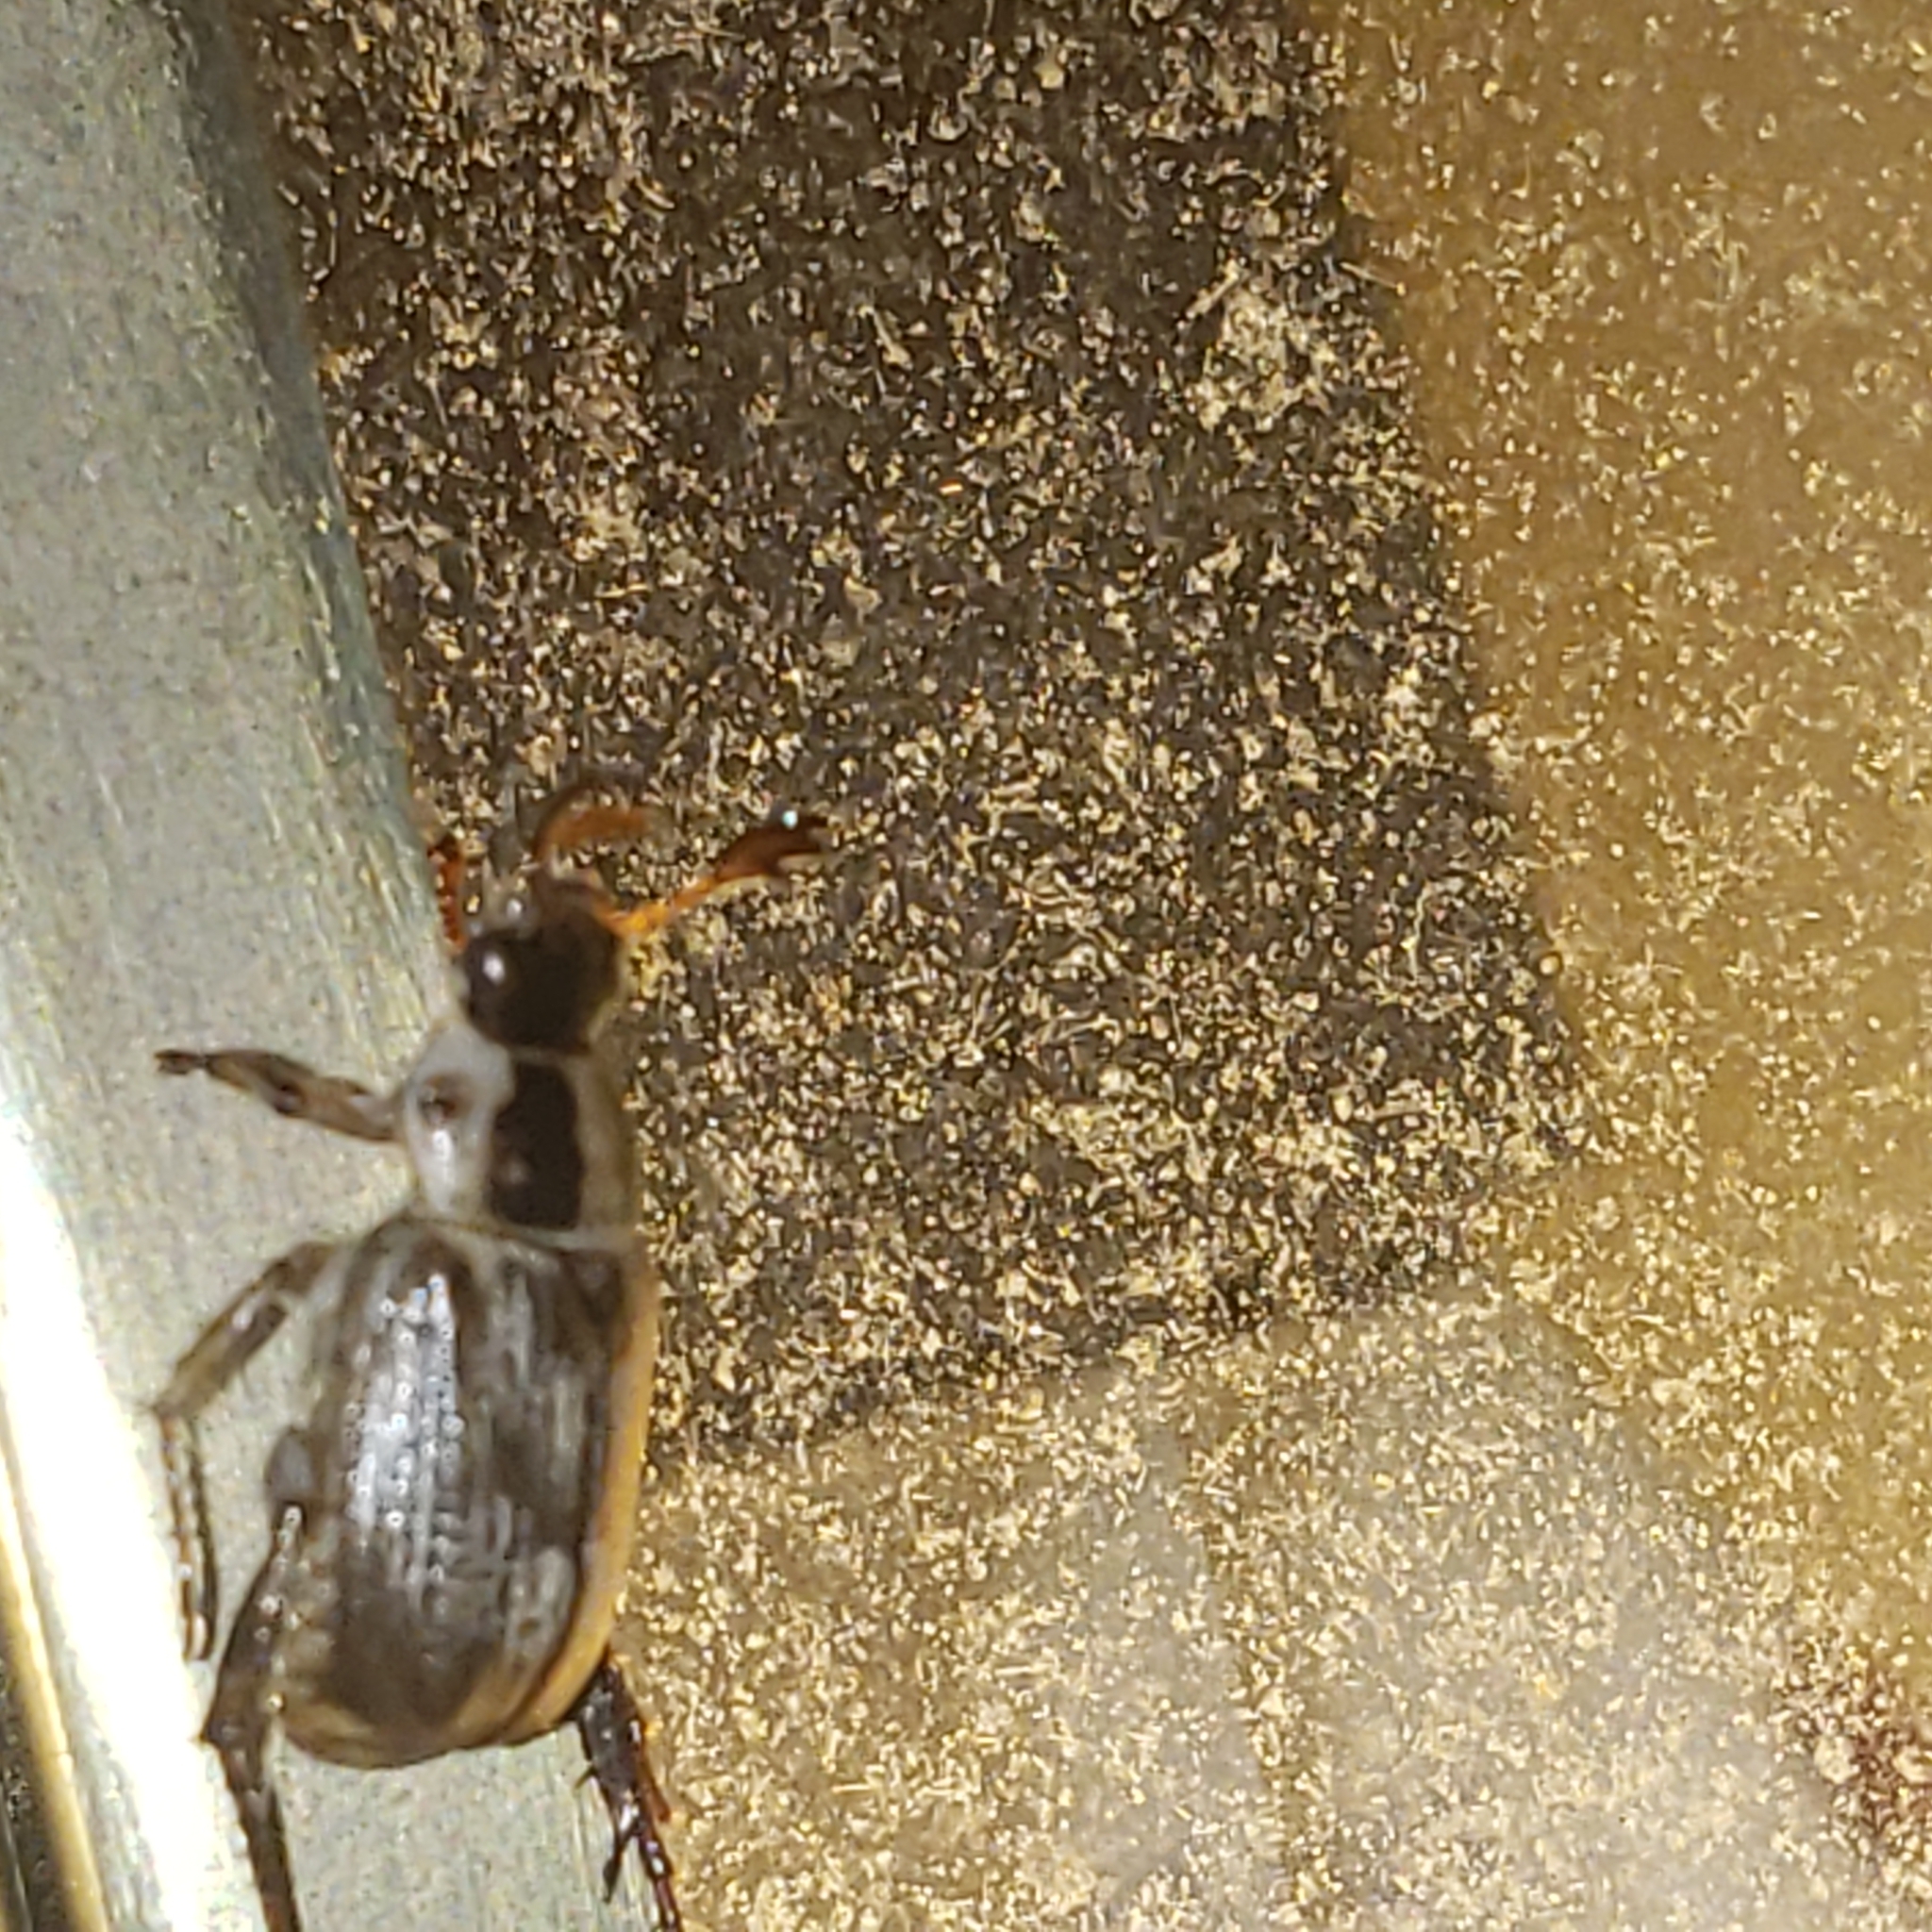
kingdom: Animalia
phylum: Arthropoda
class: Insecta
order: Coleoptera
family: Scarabaeidae
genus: Exomala
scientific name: Exomala orientalis
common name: Oriental beetle
